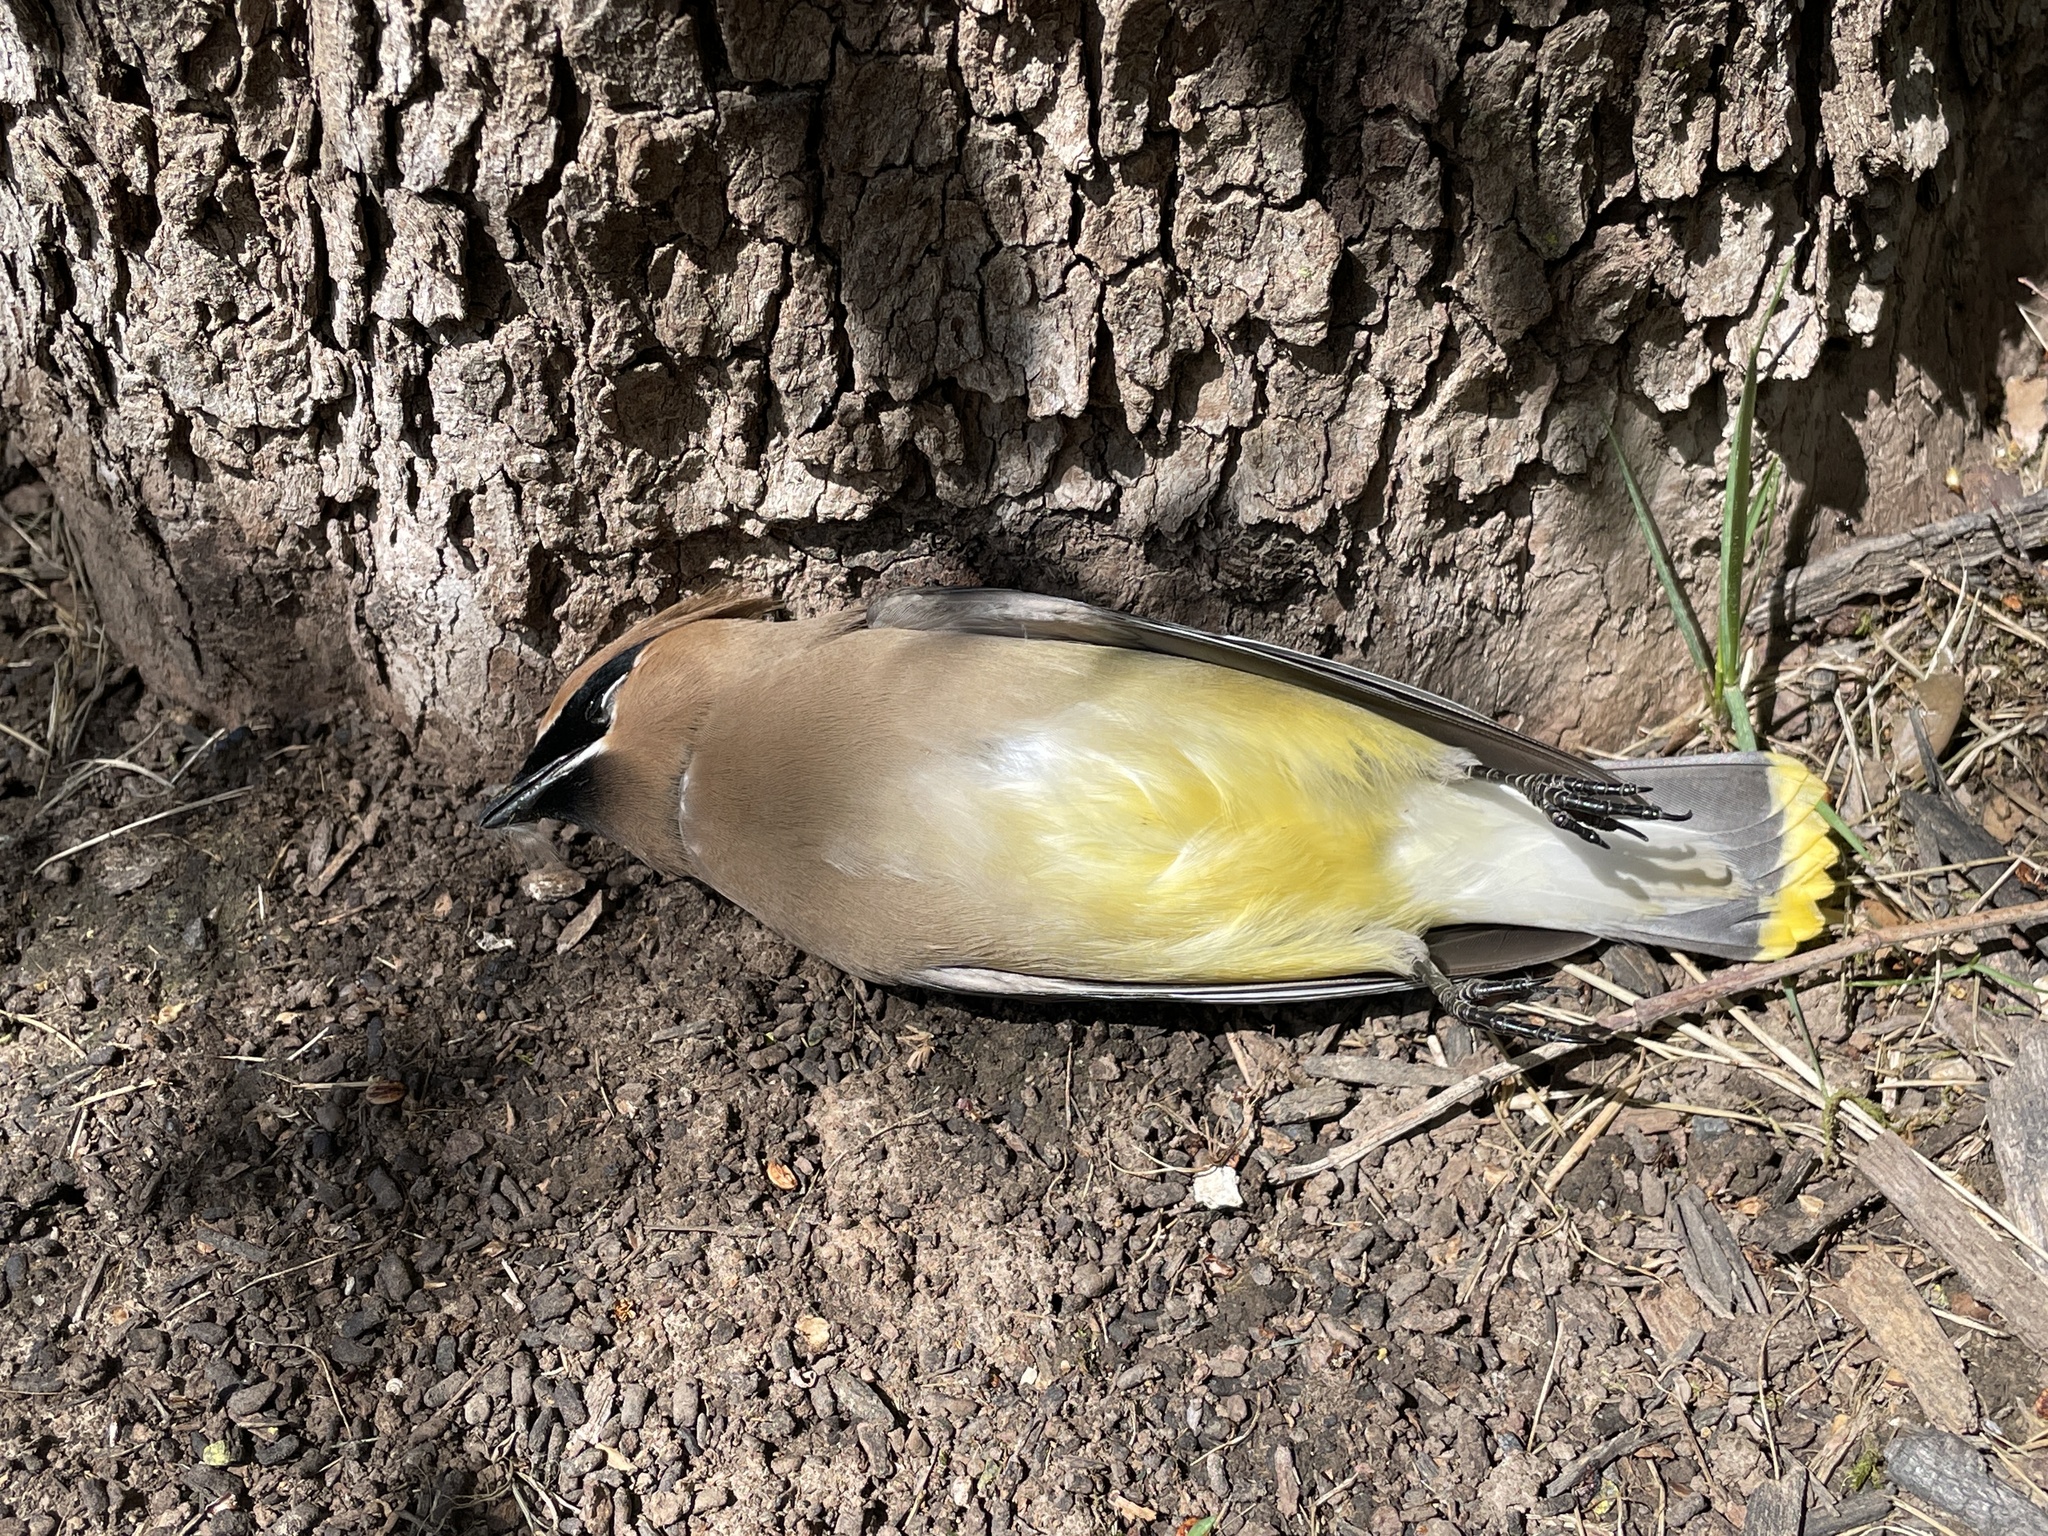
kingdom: Animalia
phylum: Chordata
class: Aves
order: Passeriformes
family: Bombycillidae
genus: Bombycilla
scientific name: Bombycilla cedrorum
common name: Cedar waxwing
